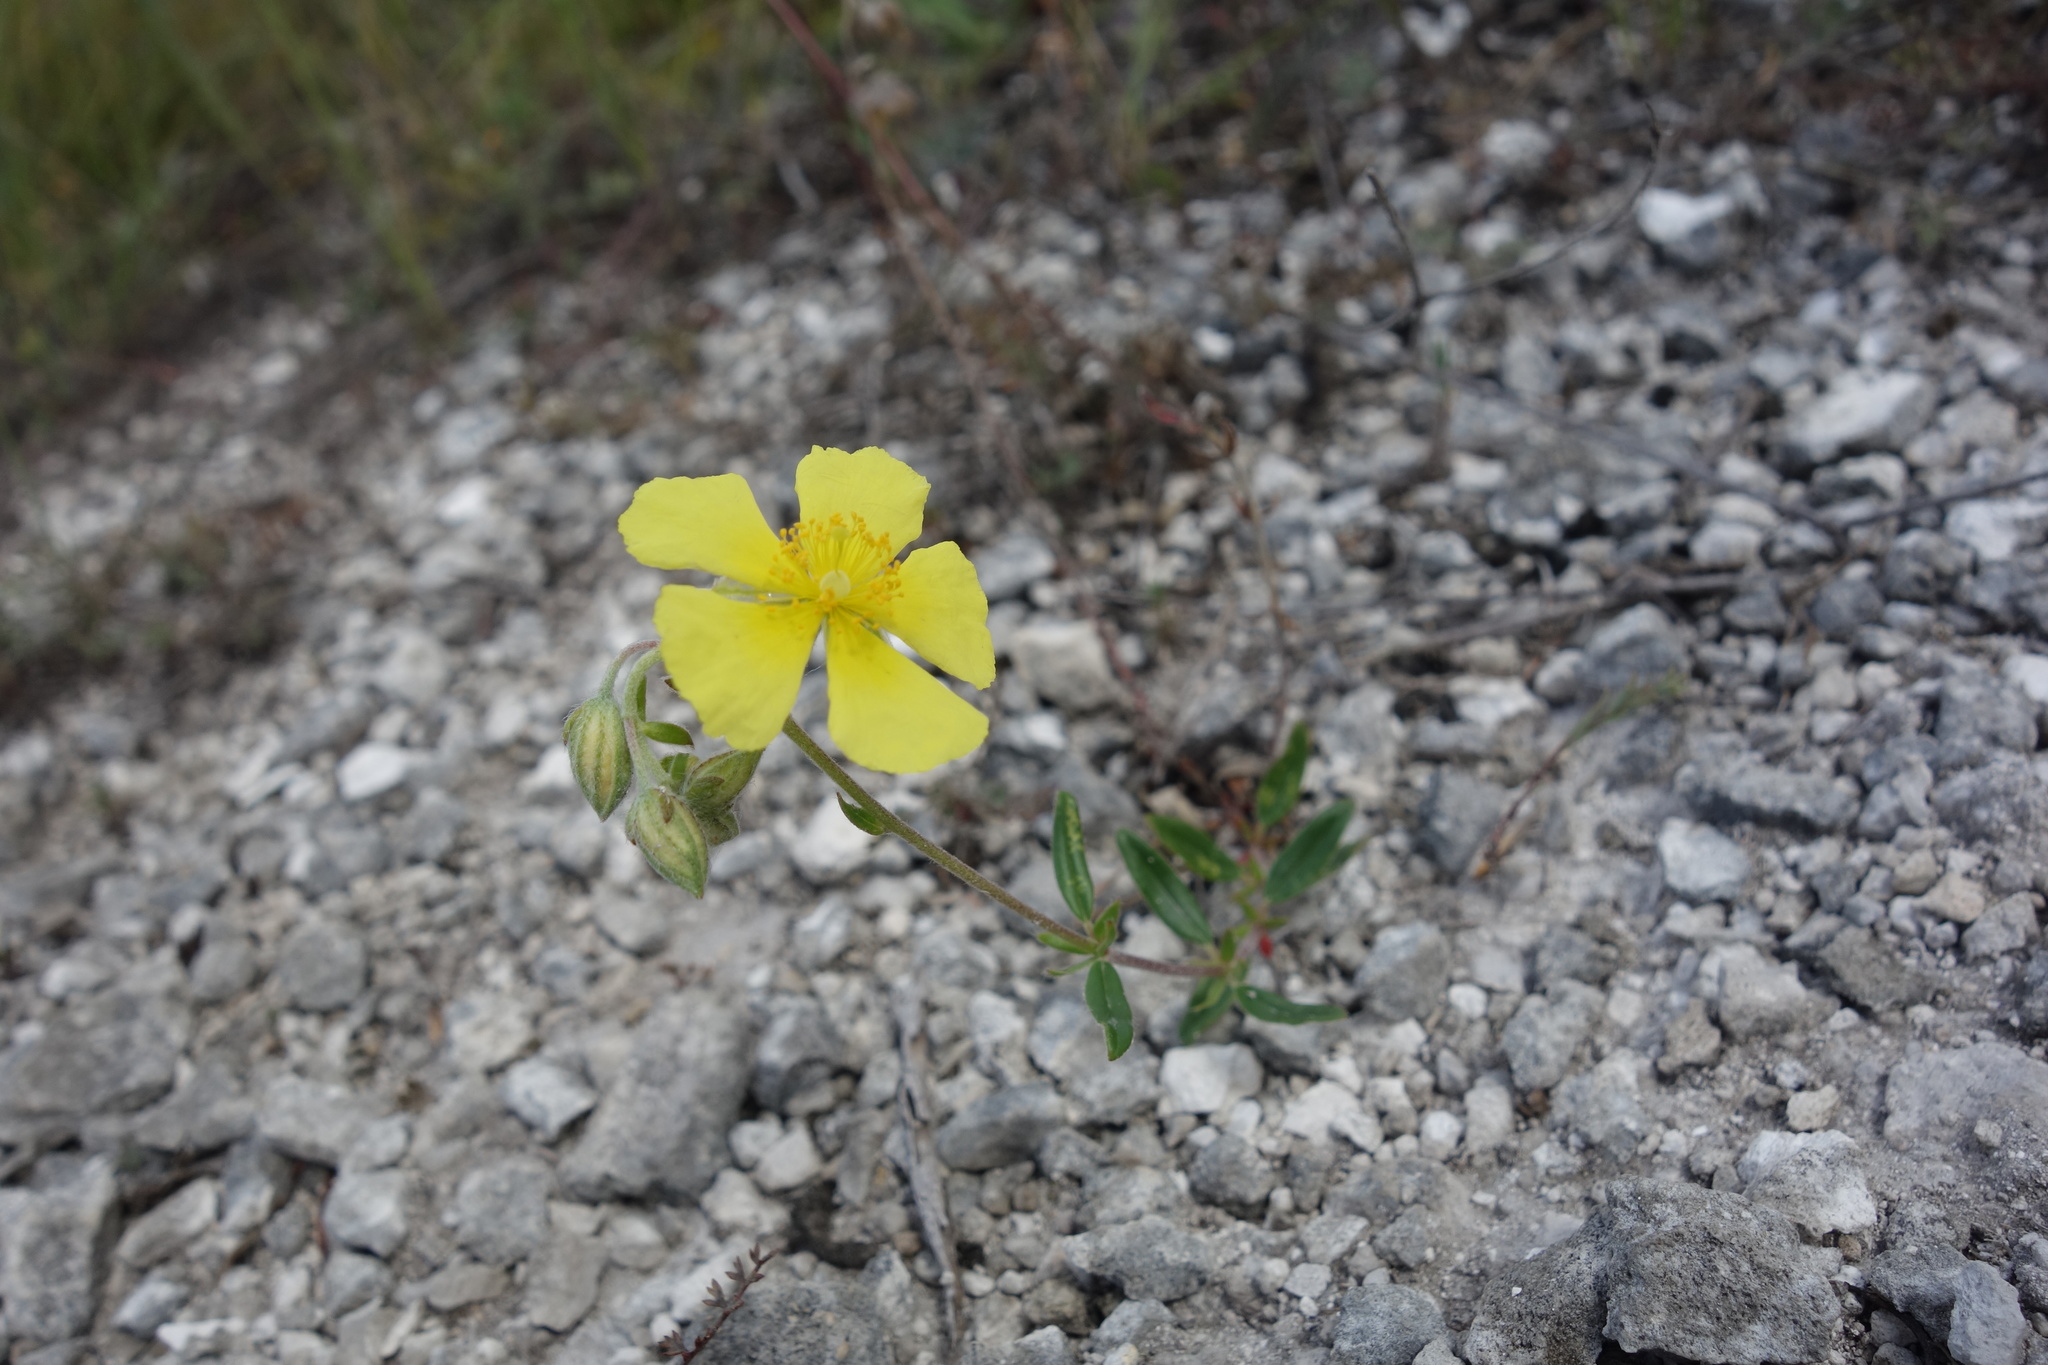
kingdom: Plantae
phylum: Tracheophyta
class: Magnoliopsida
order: Malvales
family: Cistaceae
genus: Helianthemum
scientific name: Helianthemum nummularium
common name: Common rock-rose
